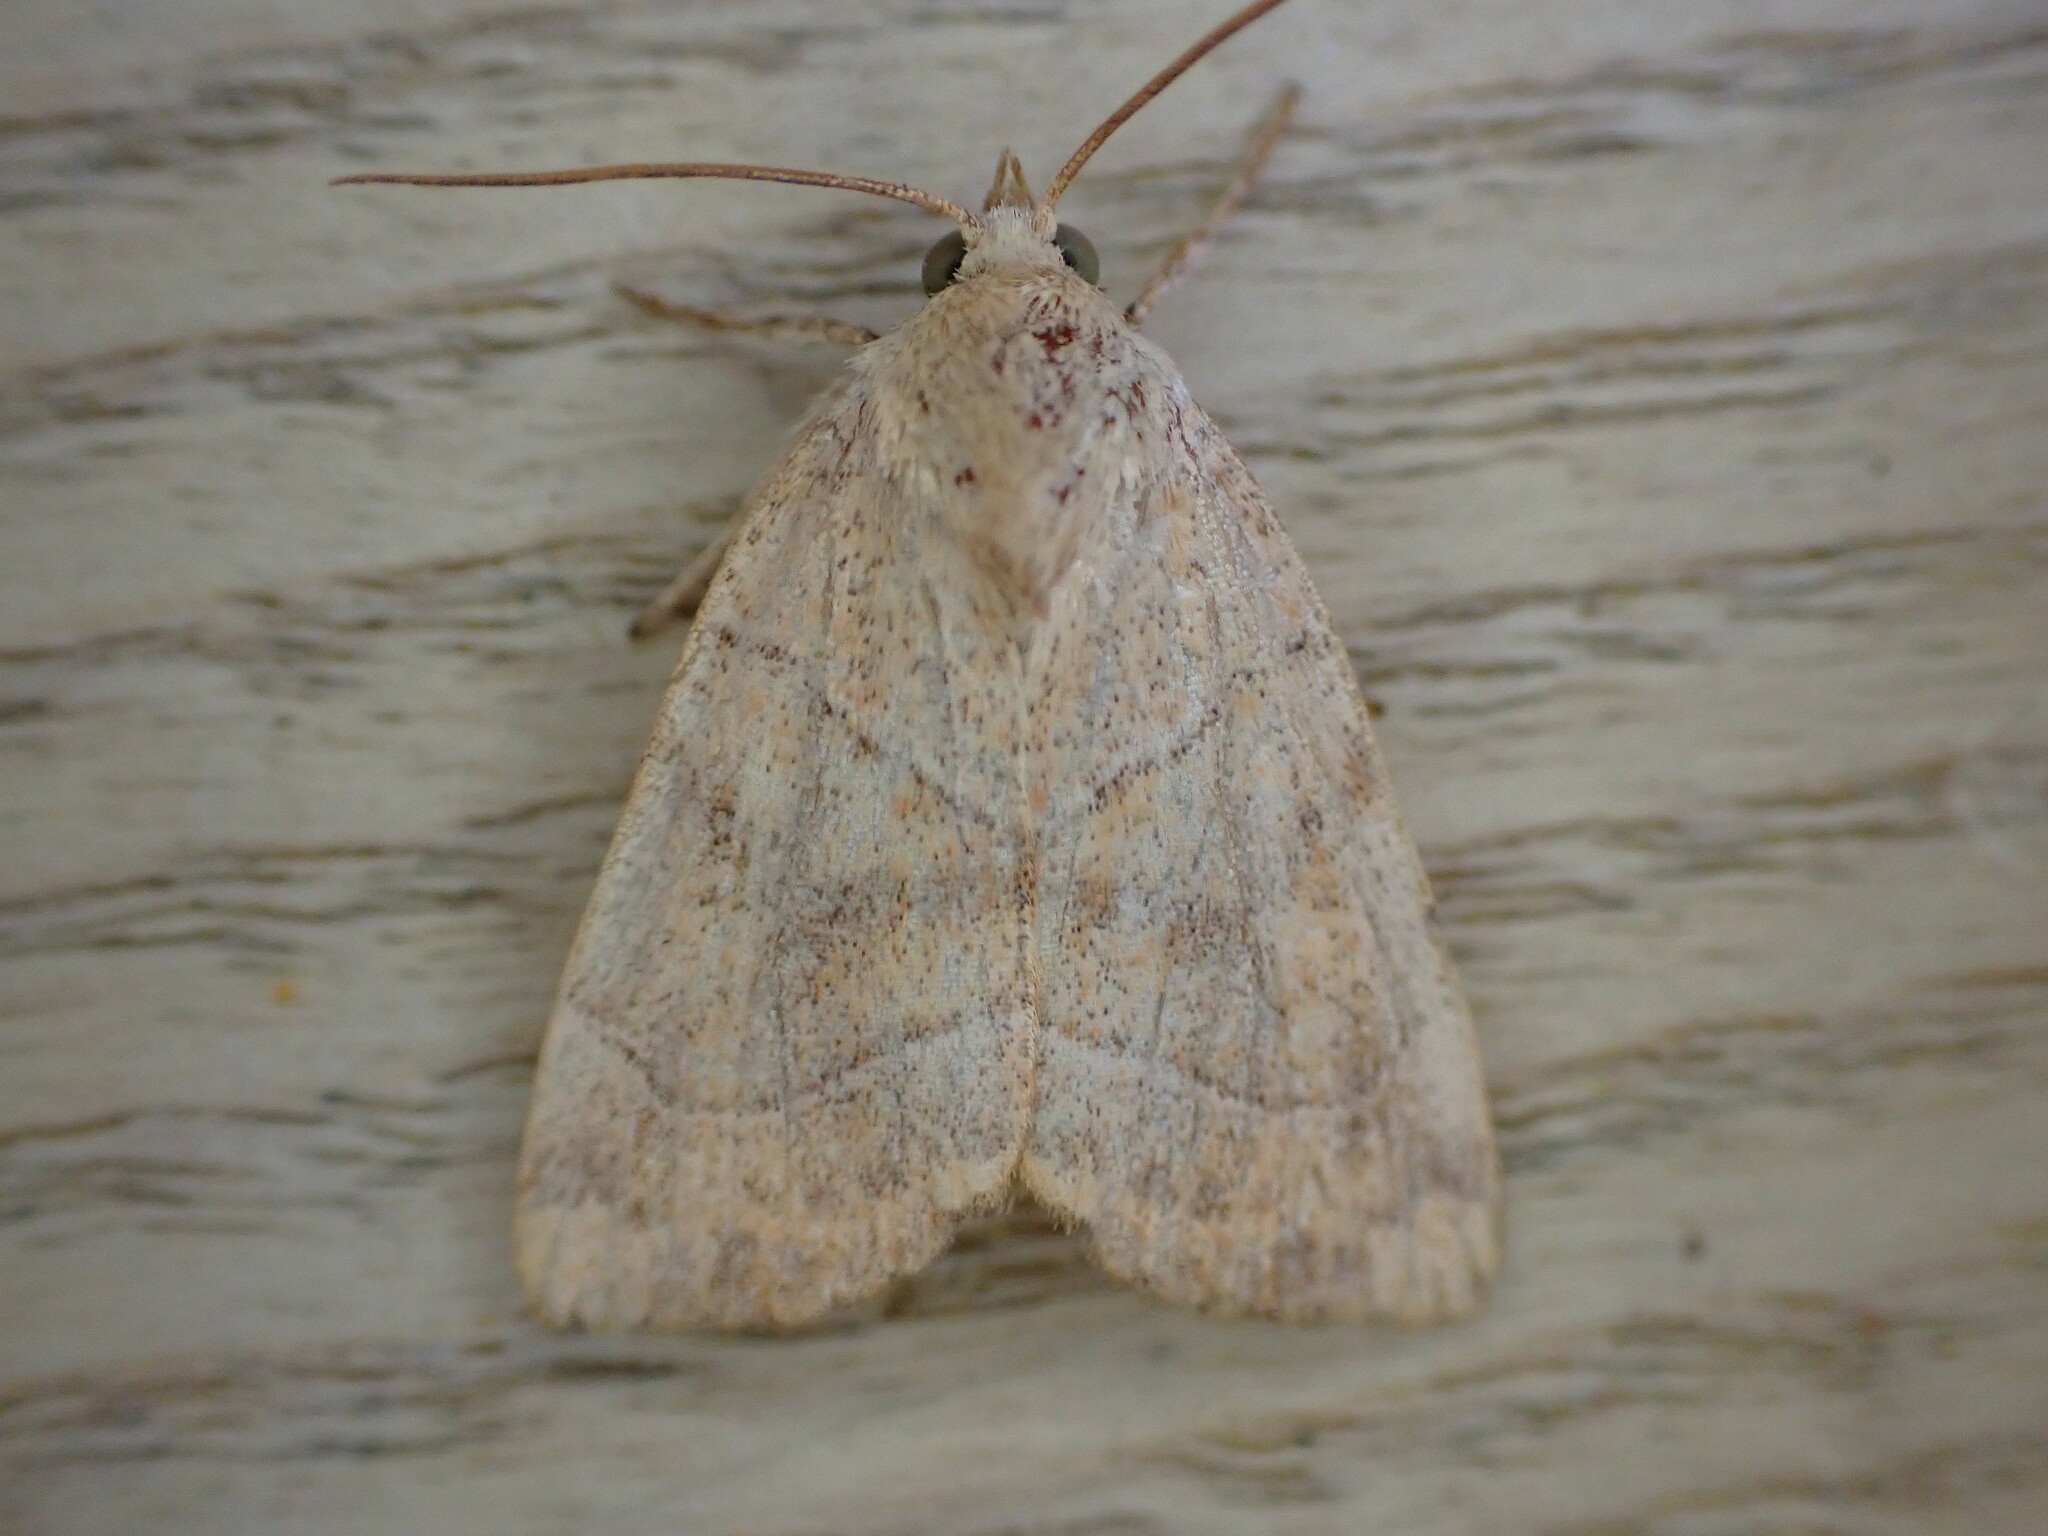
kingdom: Animalia
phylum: Arthropoda
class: Insecta
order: Lepidoptera
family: Noctuidae
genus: Cosmia
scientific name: Cosmia trapezina
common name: Dun-bar
